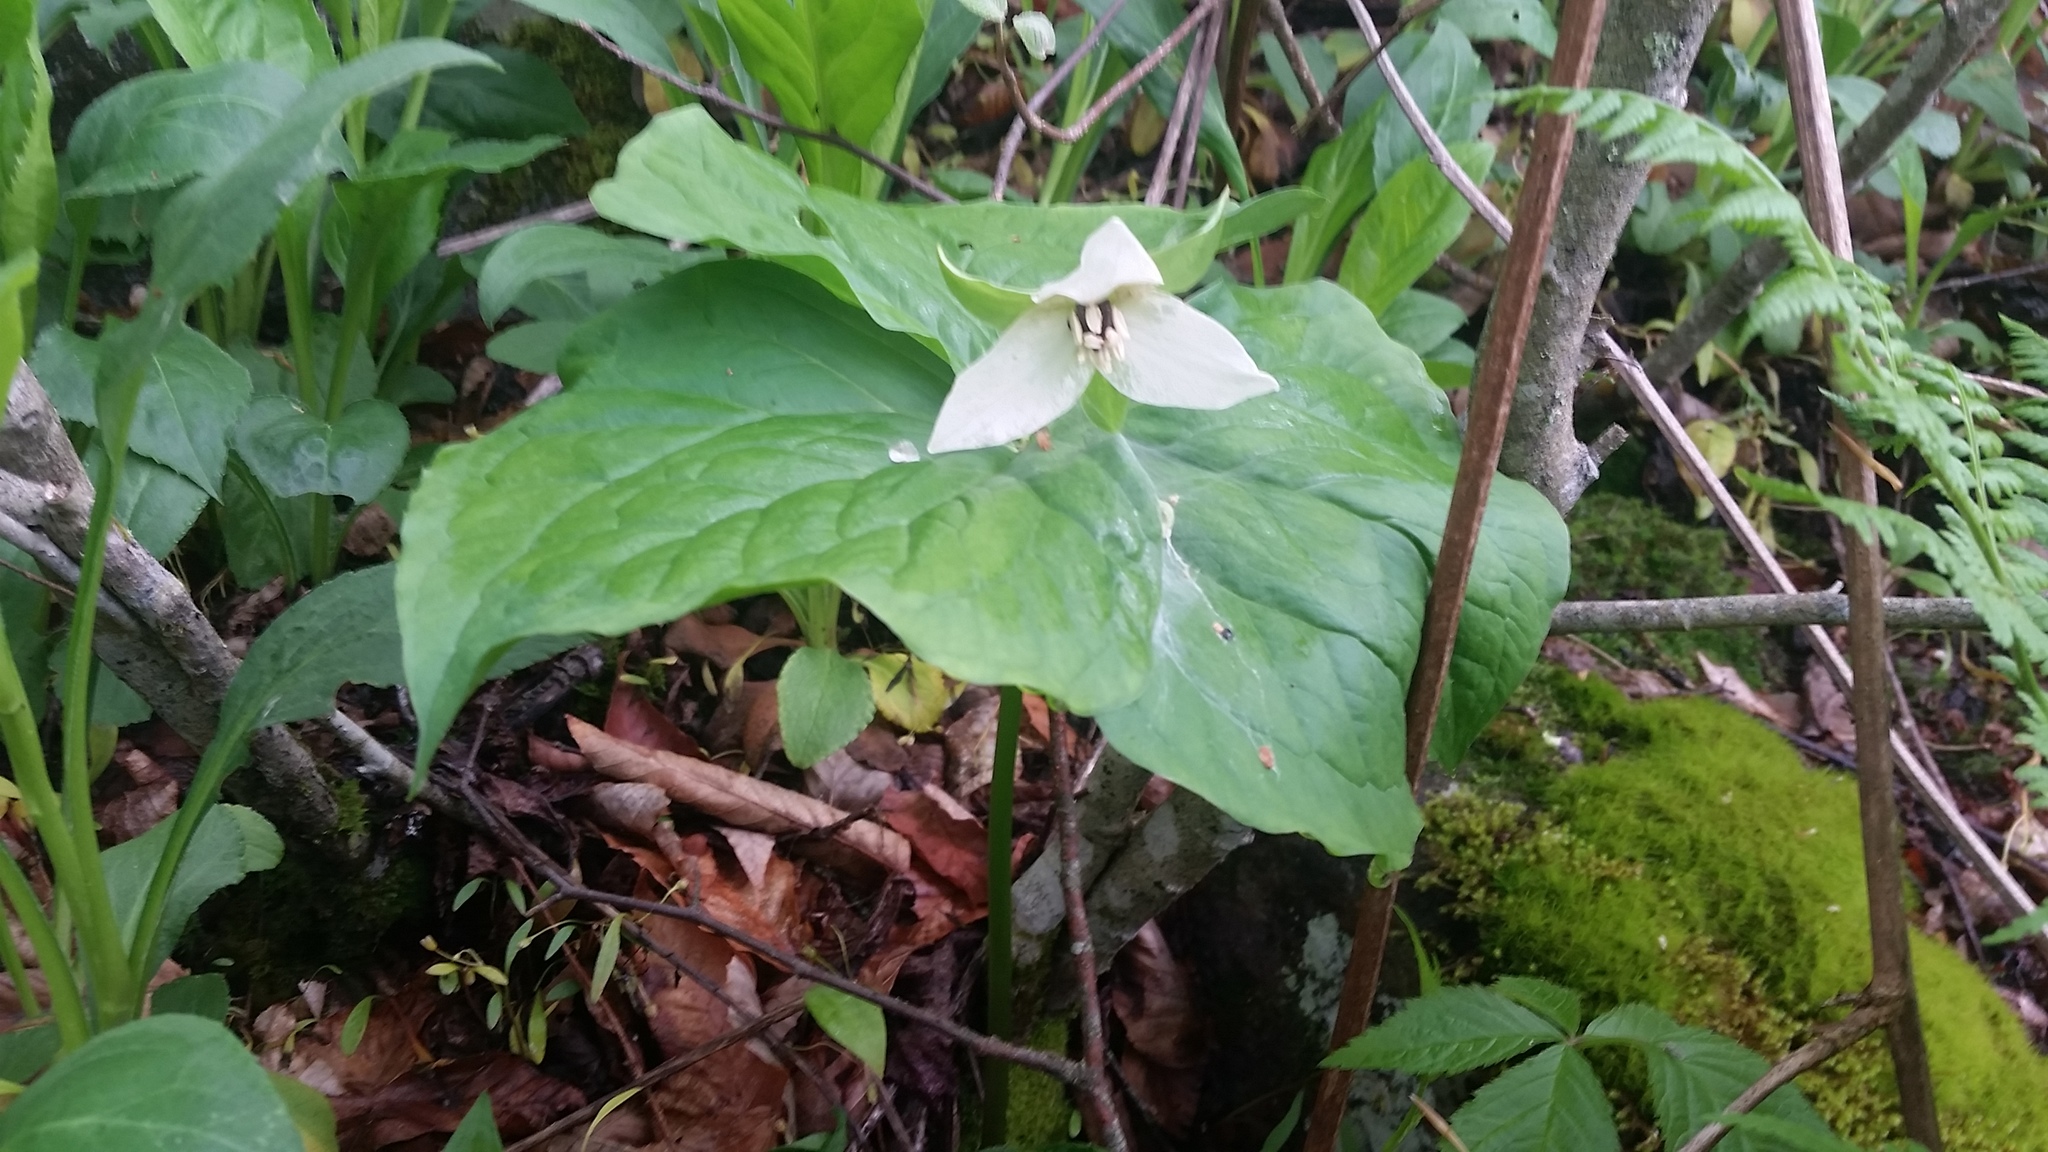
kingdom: Plantae
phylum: Tracheophyta
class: Liliopsida
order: Liliales
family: Melanthiaceae
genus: Trillium
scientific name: Trillium erectum
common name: Purple trillium
